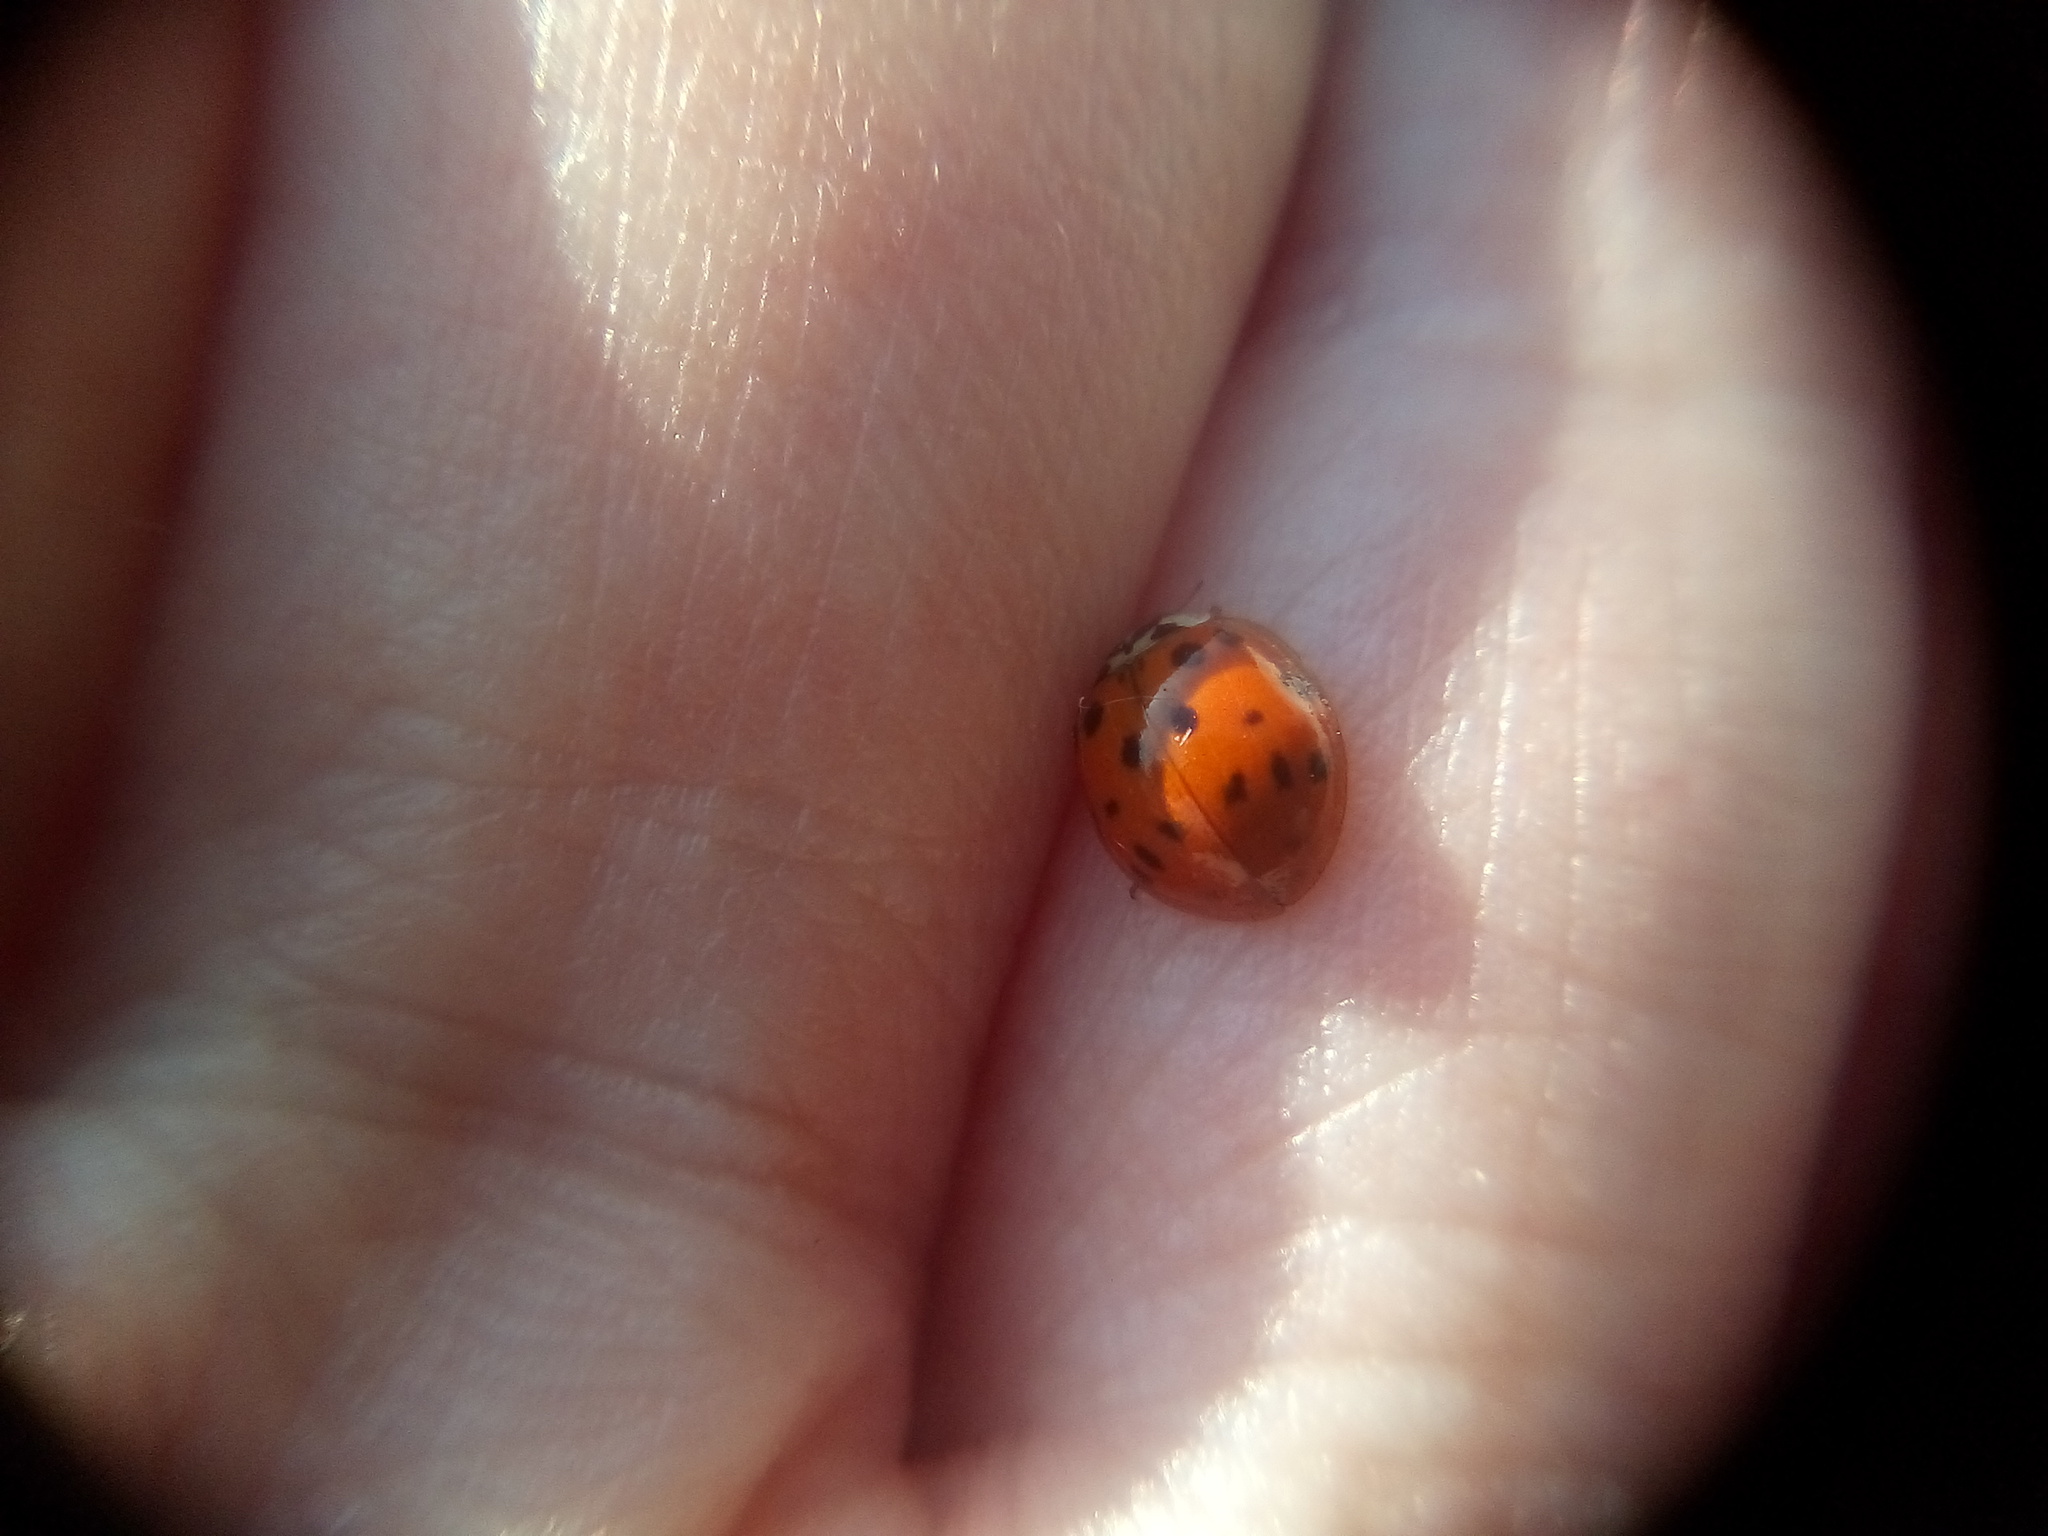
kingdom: Animalia
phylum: Arthropoda
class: Insecta
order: Coleoptera
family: Coccinellidae
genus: Harmonia
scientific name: Harmonia axyridis
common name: Harlequin ladybird
